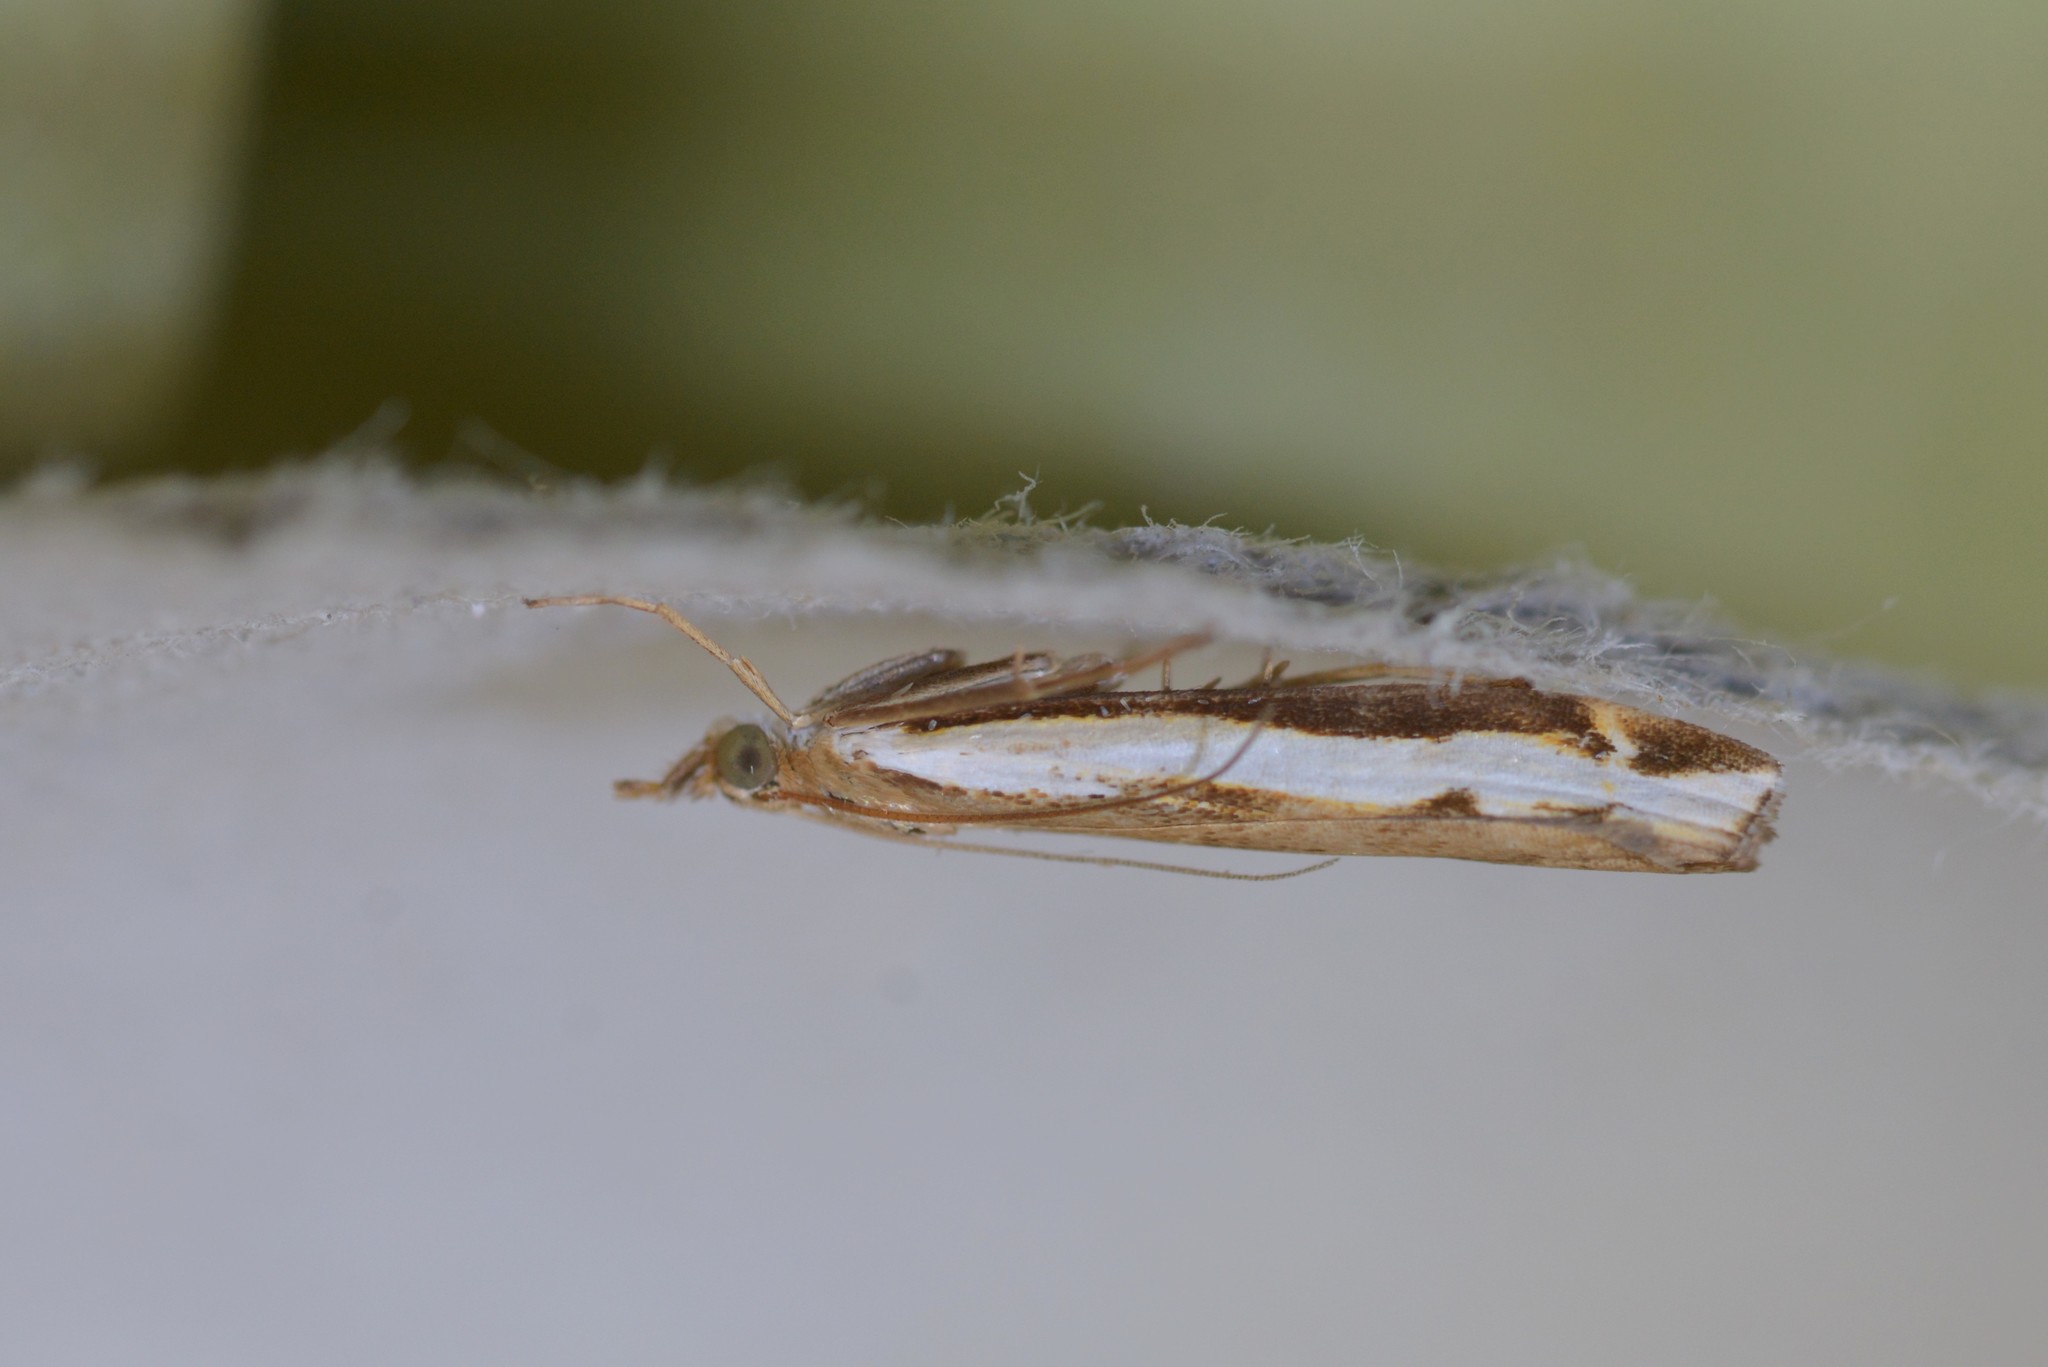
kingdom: Animalia
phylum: Arthropoda
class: Insecta
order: Lepidoptera
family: Crambidae
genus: Orocrambus
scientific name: Orocrambus flexuosellus
